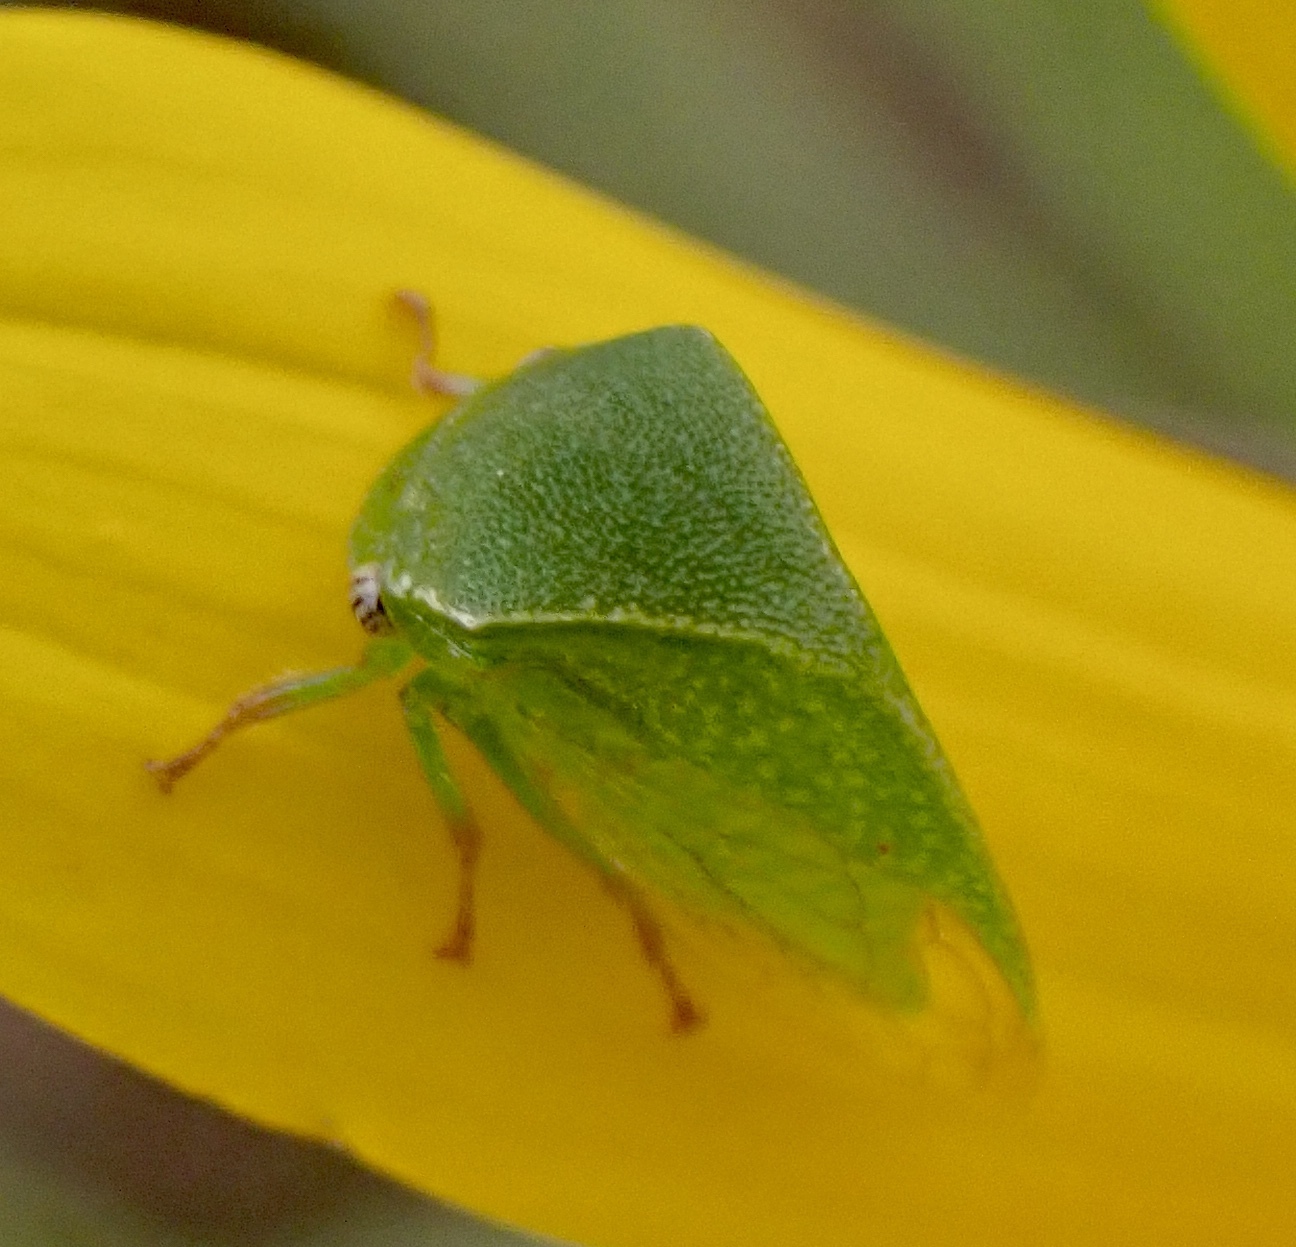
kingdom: Animalia
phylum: Arthropoda
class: Insecta
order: Hemiptera
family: Membracidae
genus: Spissistilus
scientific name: Spissistilus festina
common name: Membracid bug
